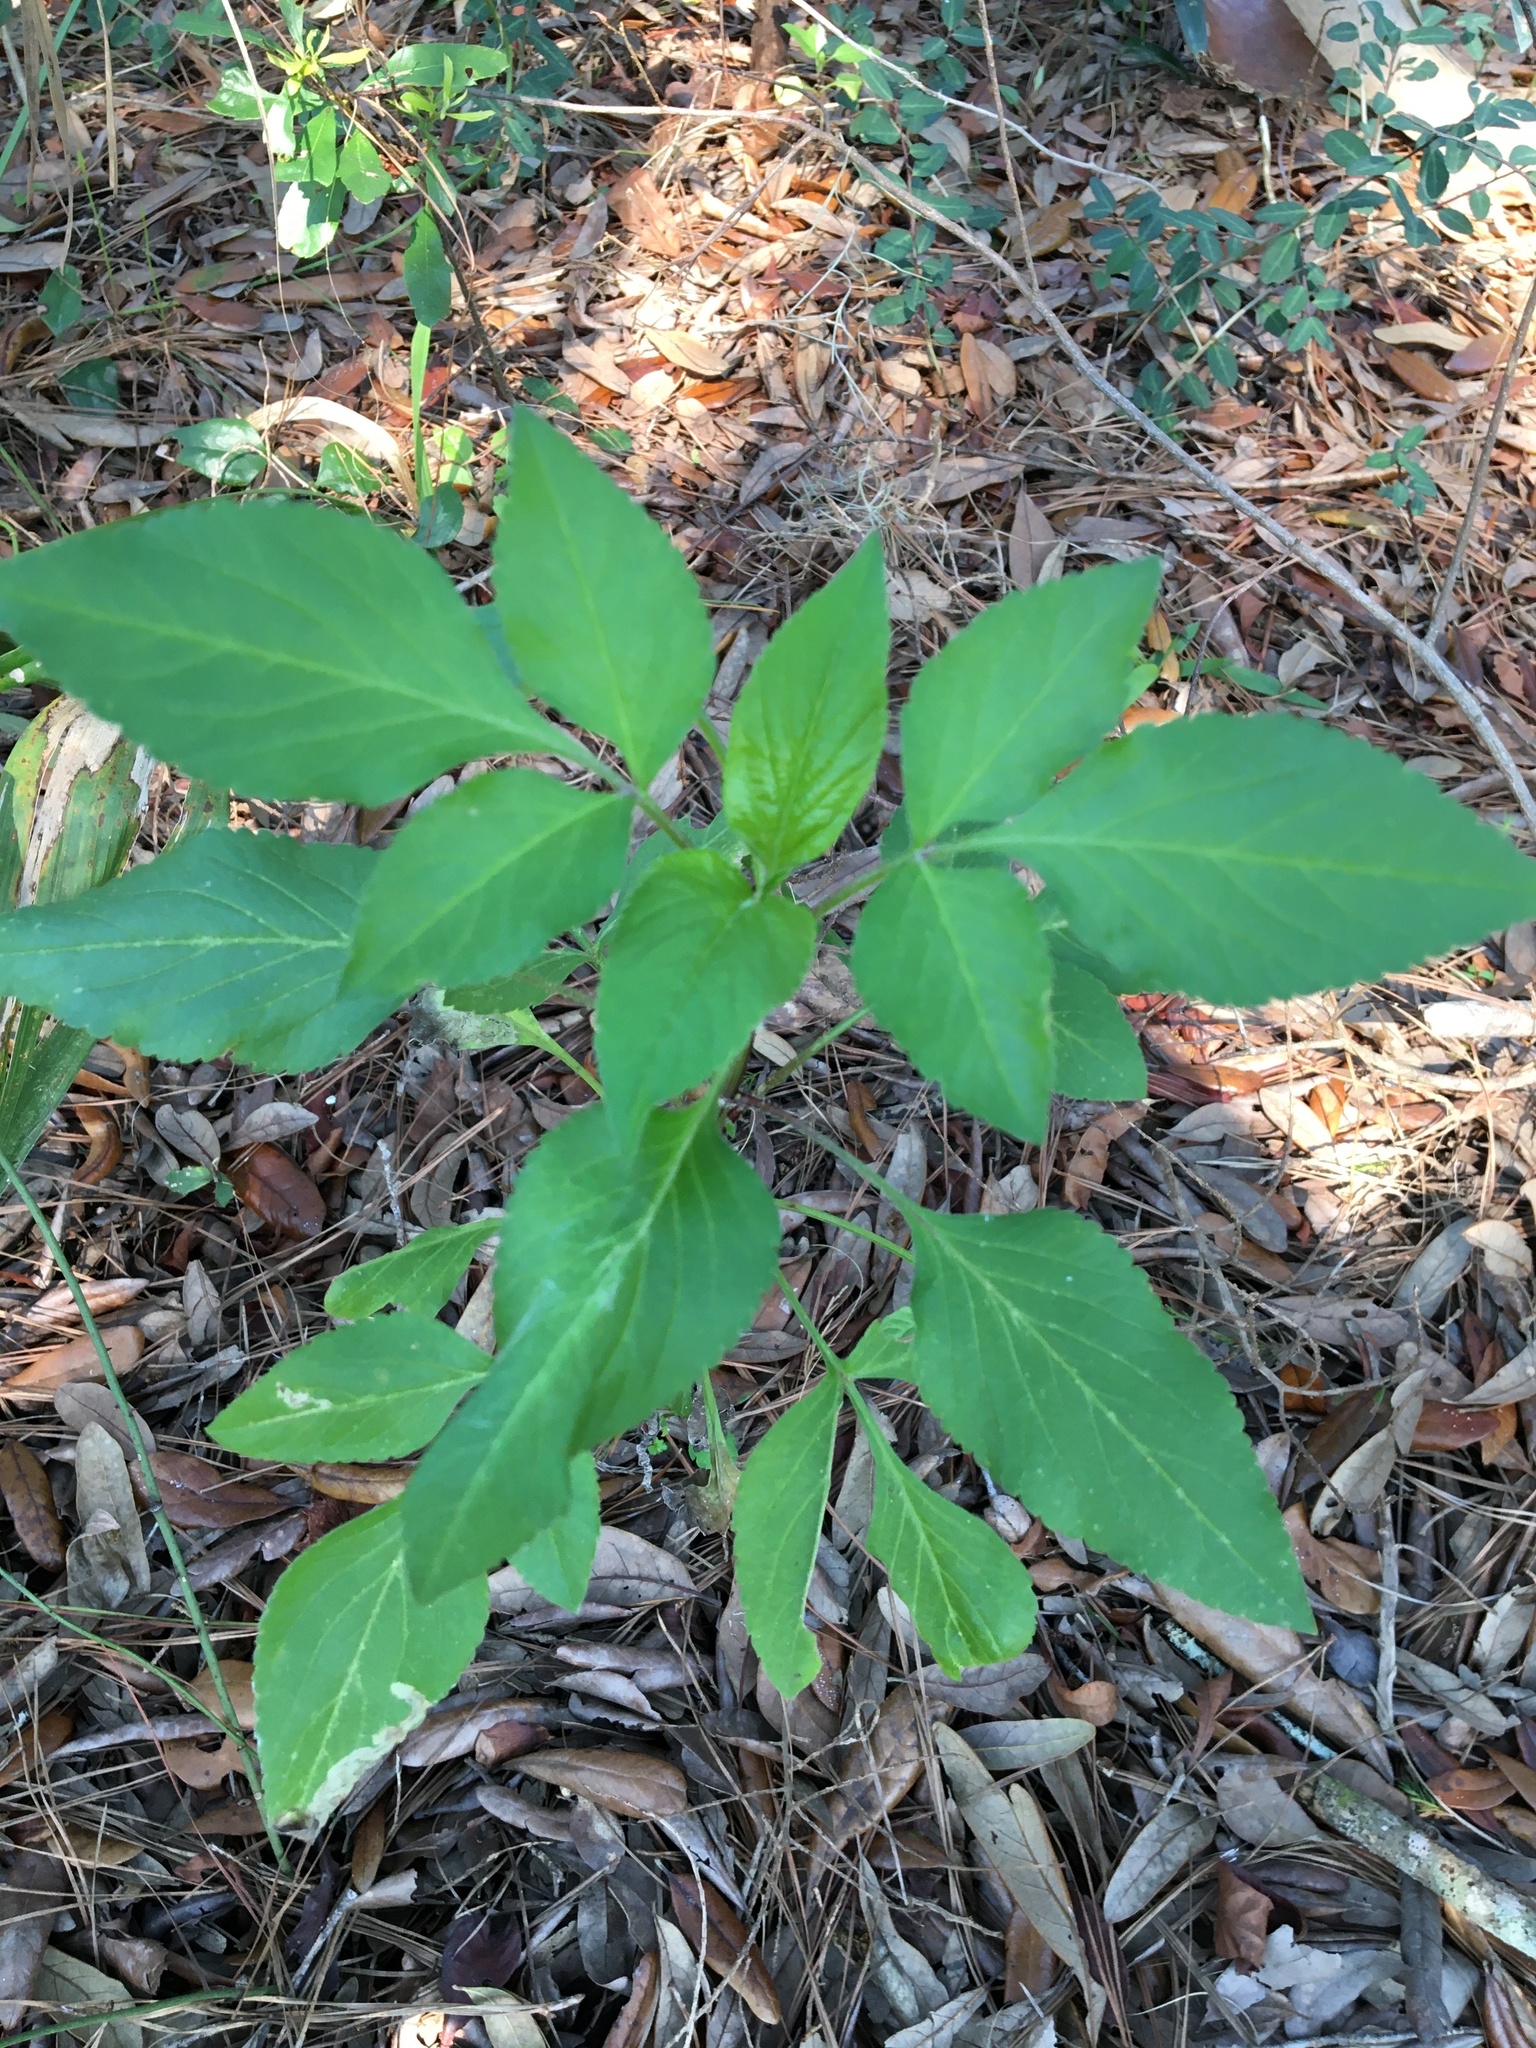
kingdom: Plantae
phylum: Tracheophyta
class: Magnoliopsida
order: Asterales
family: Asteraceae
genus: Bidens
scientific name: Bidens alba
